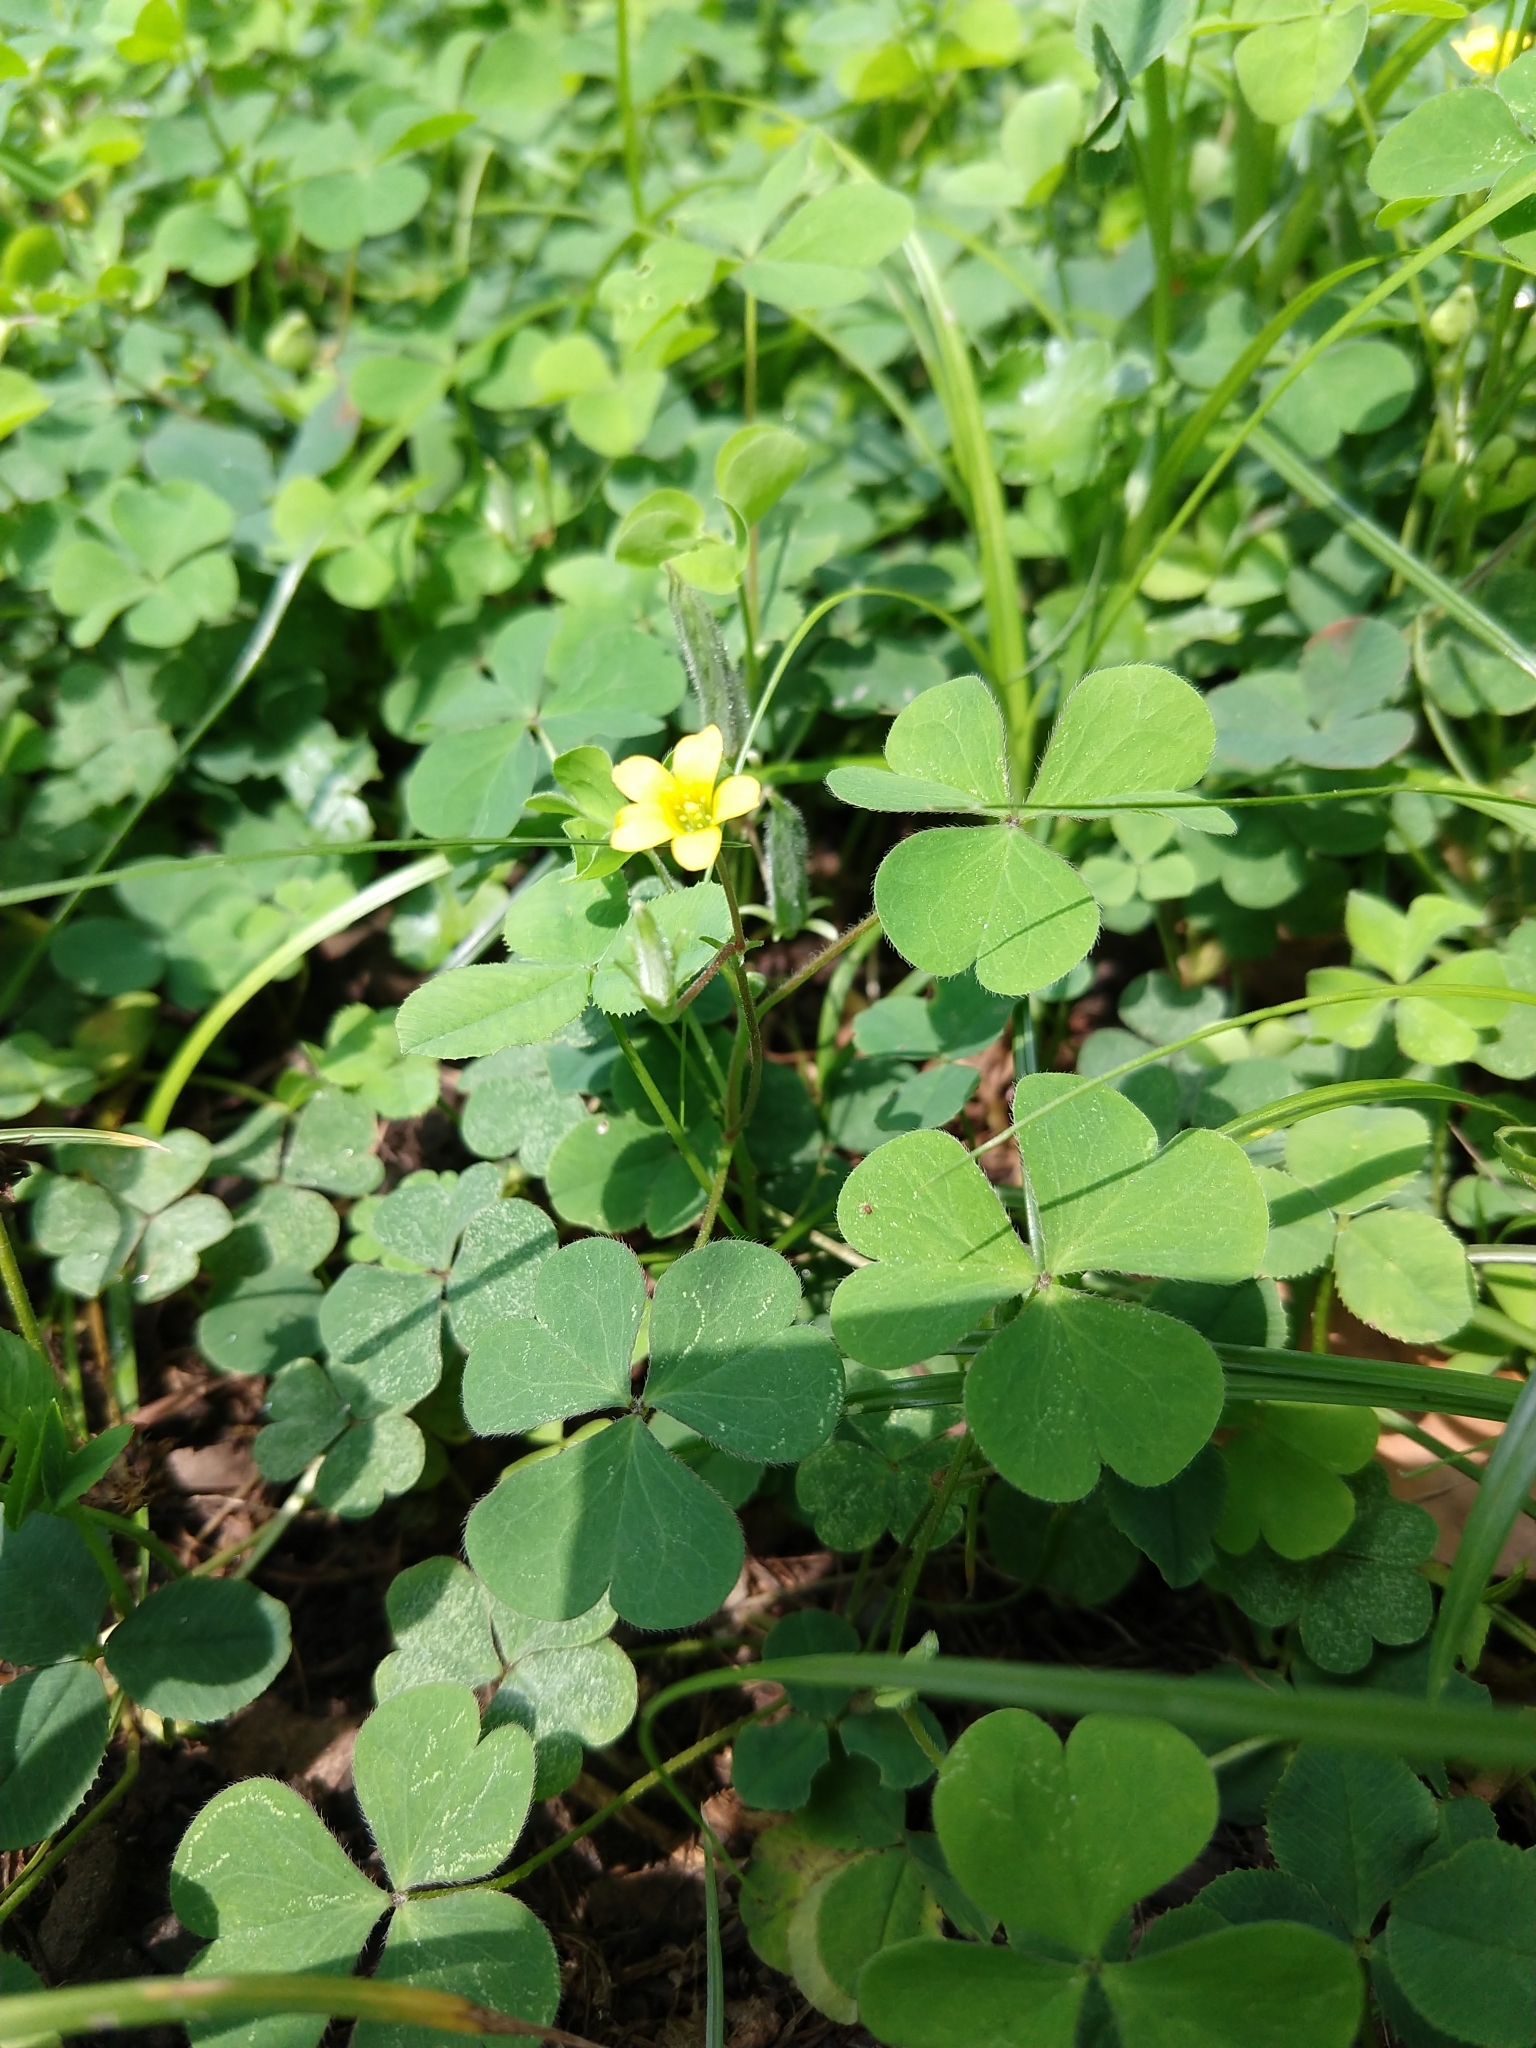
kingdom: Plantae
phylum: Tracheophyta
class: Magnoliopsida
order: Oxalidales
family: Oxalidaceae
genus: Oxalis
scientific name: Oxalis corniculata
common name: Procumbent yellow-sorrel
